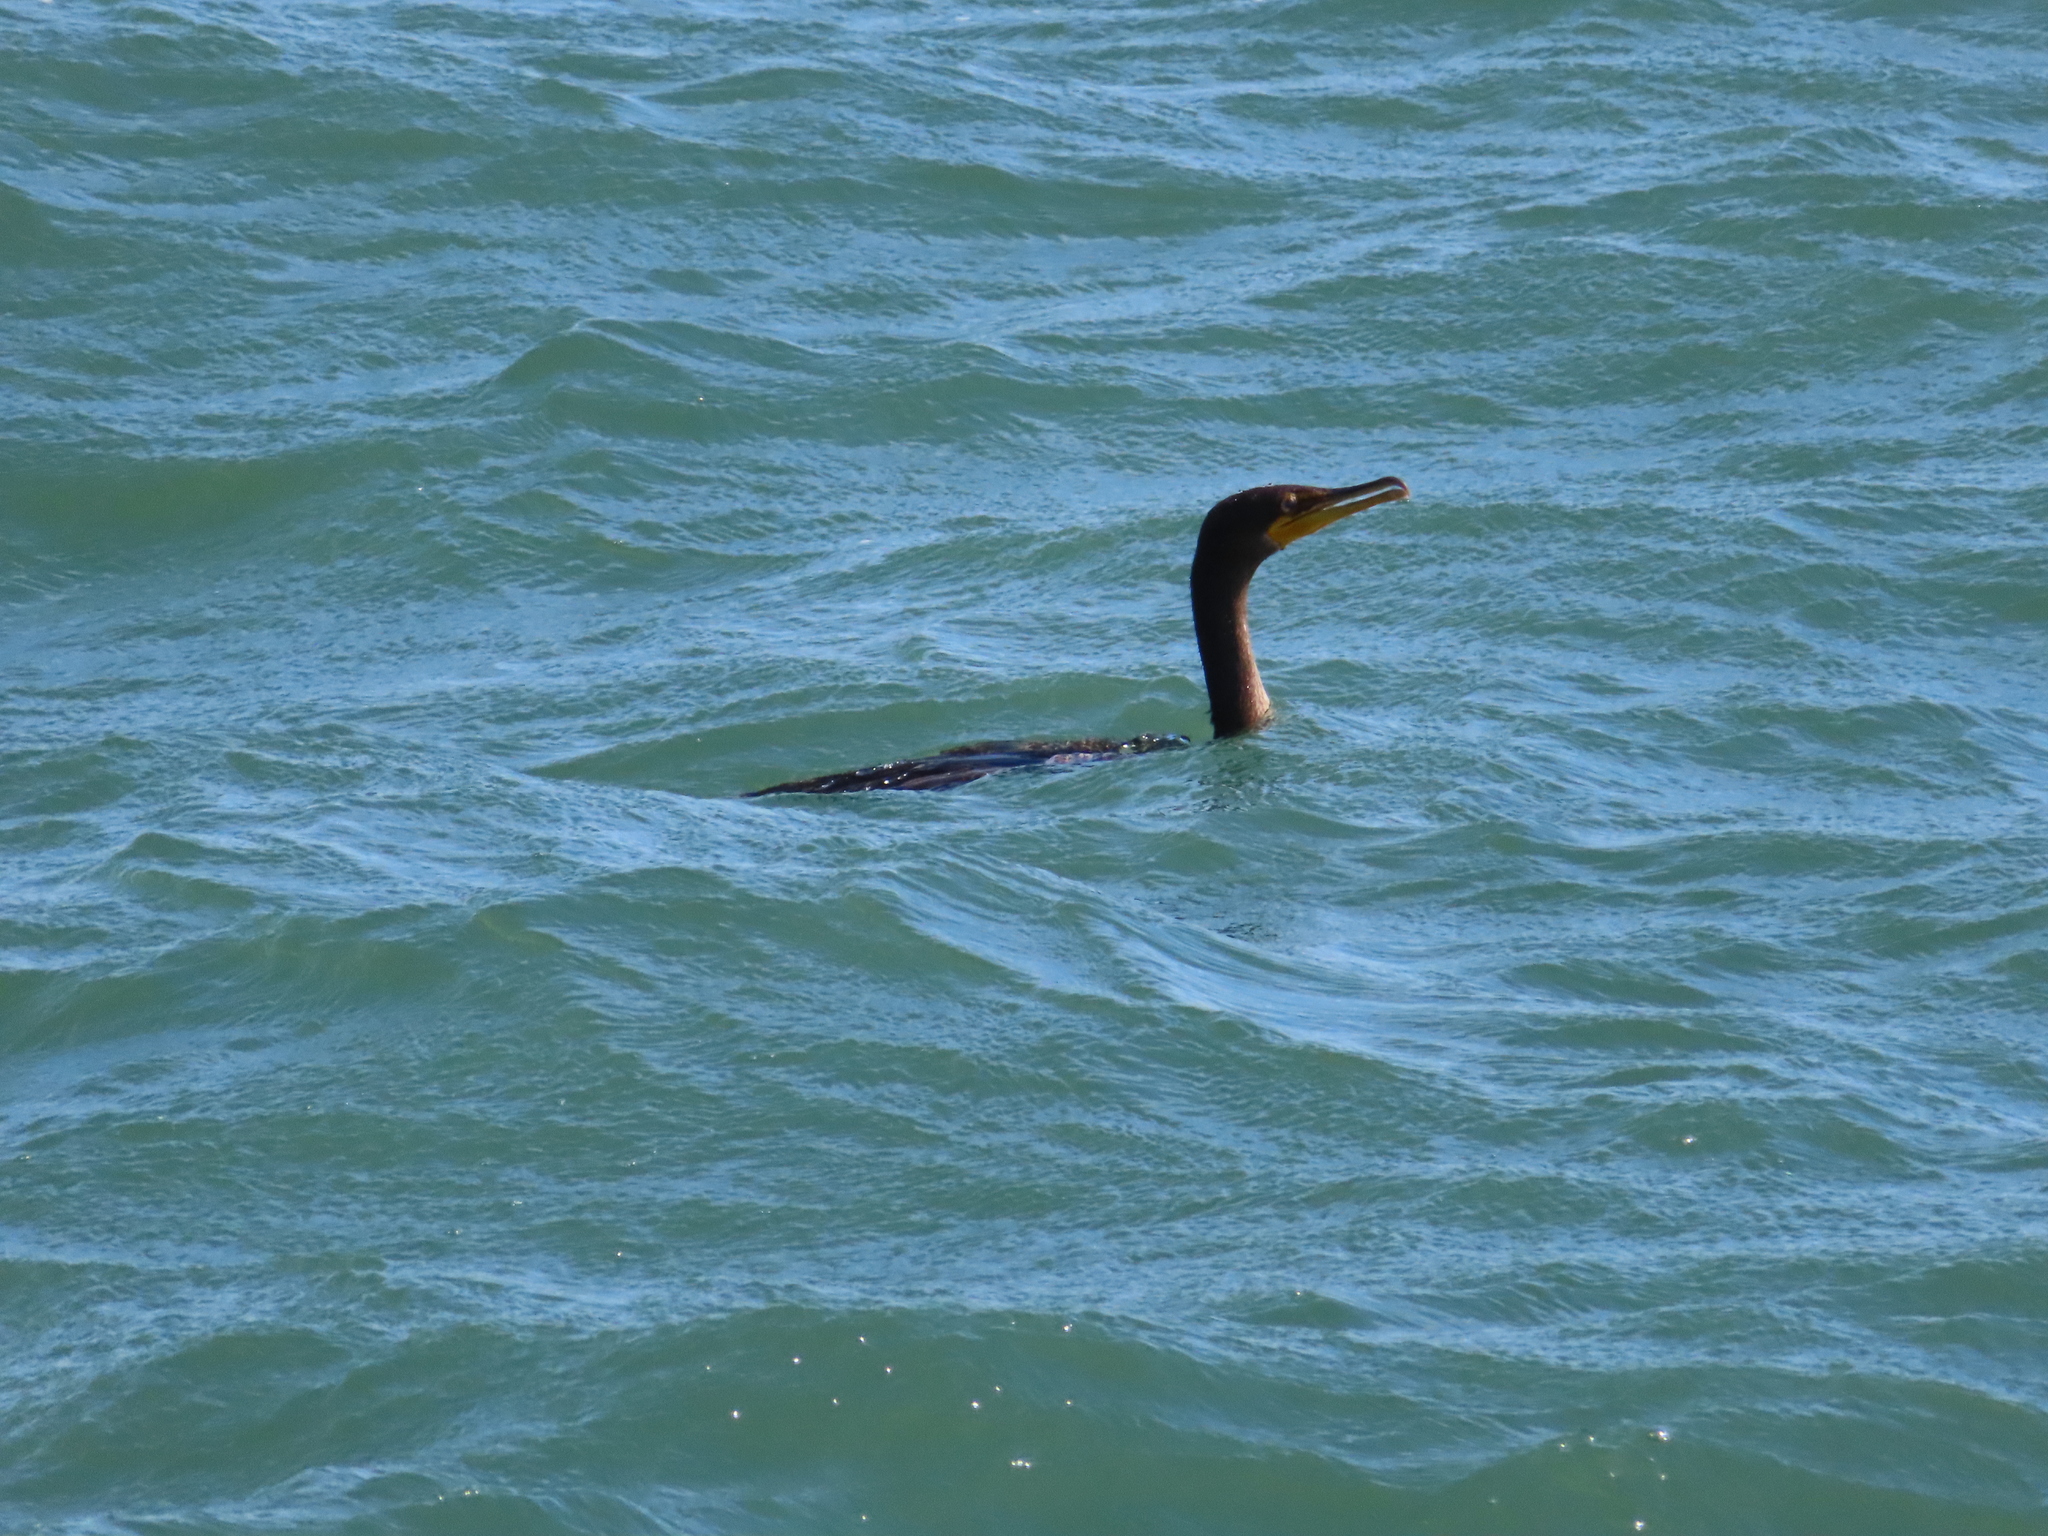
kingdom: Animalia
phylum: Chordata
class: Aves
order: Suliformes
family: Phalacrocoracidae
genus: Phalacrocorax
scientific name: Phalacrocorax auritus
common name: Double-crested cormorant
